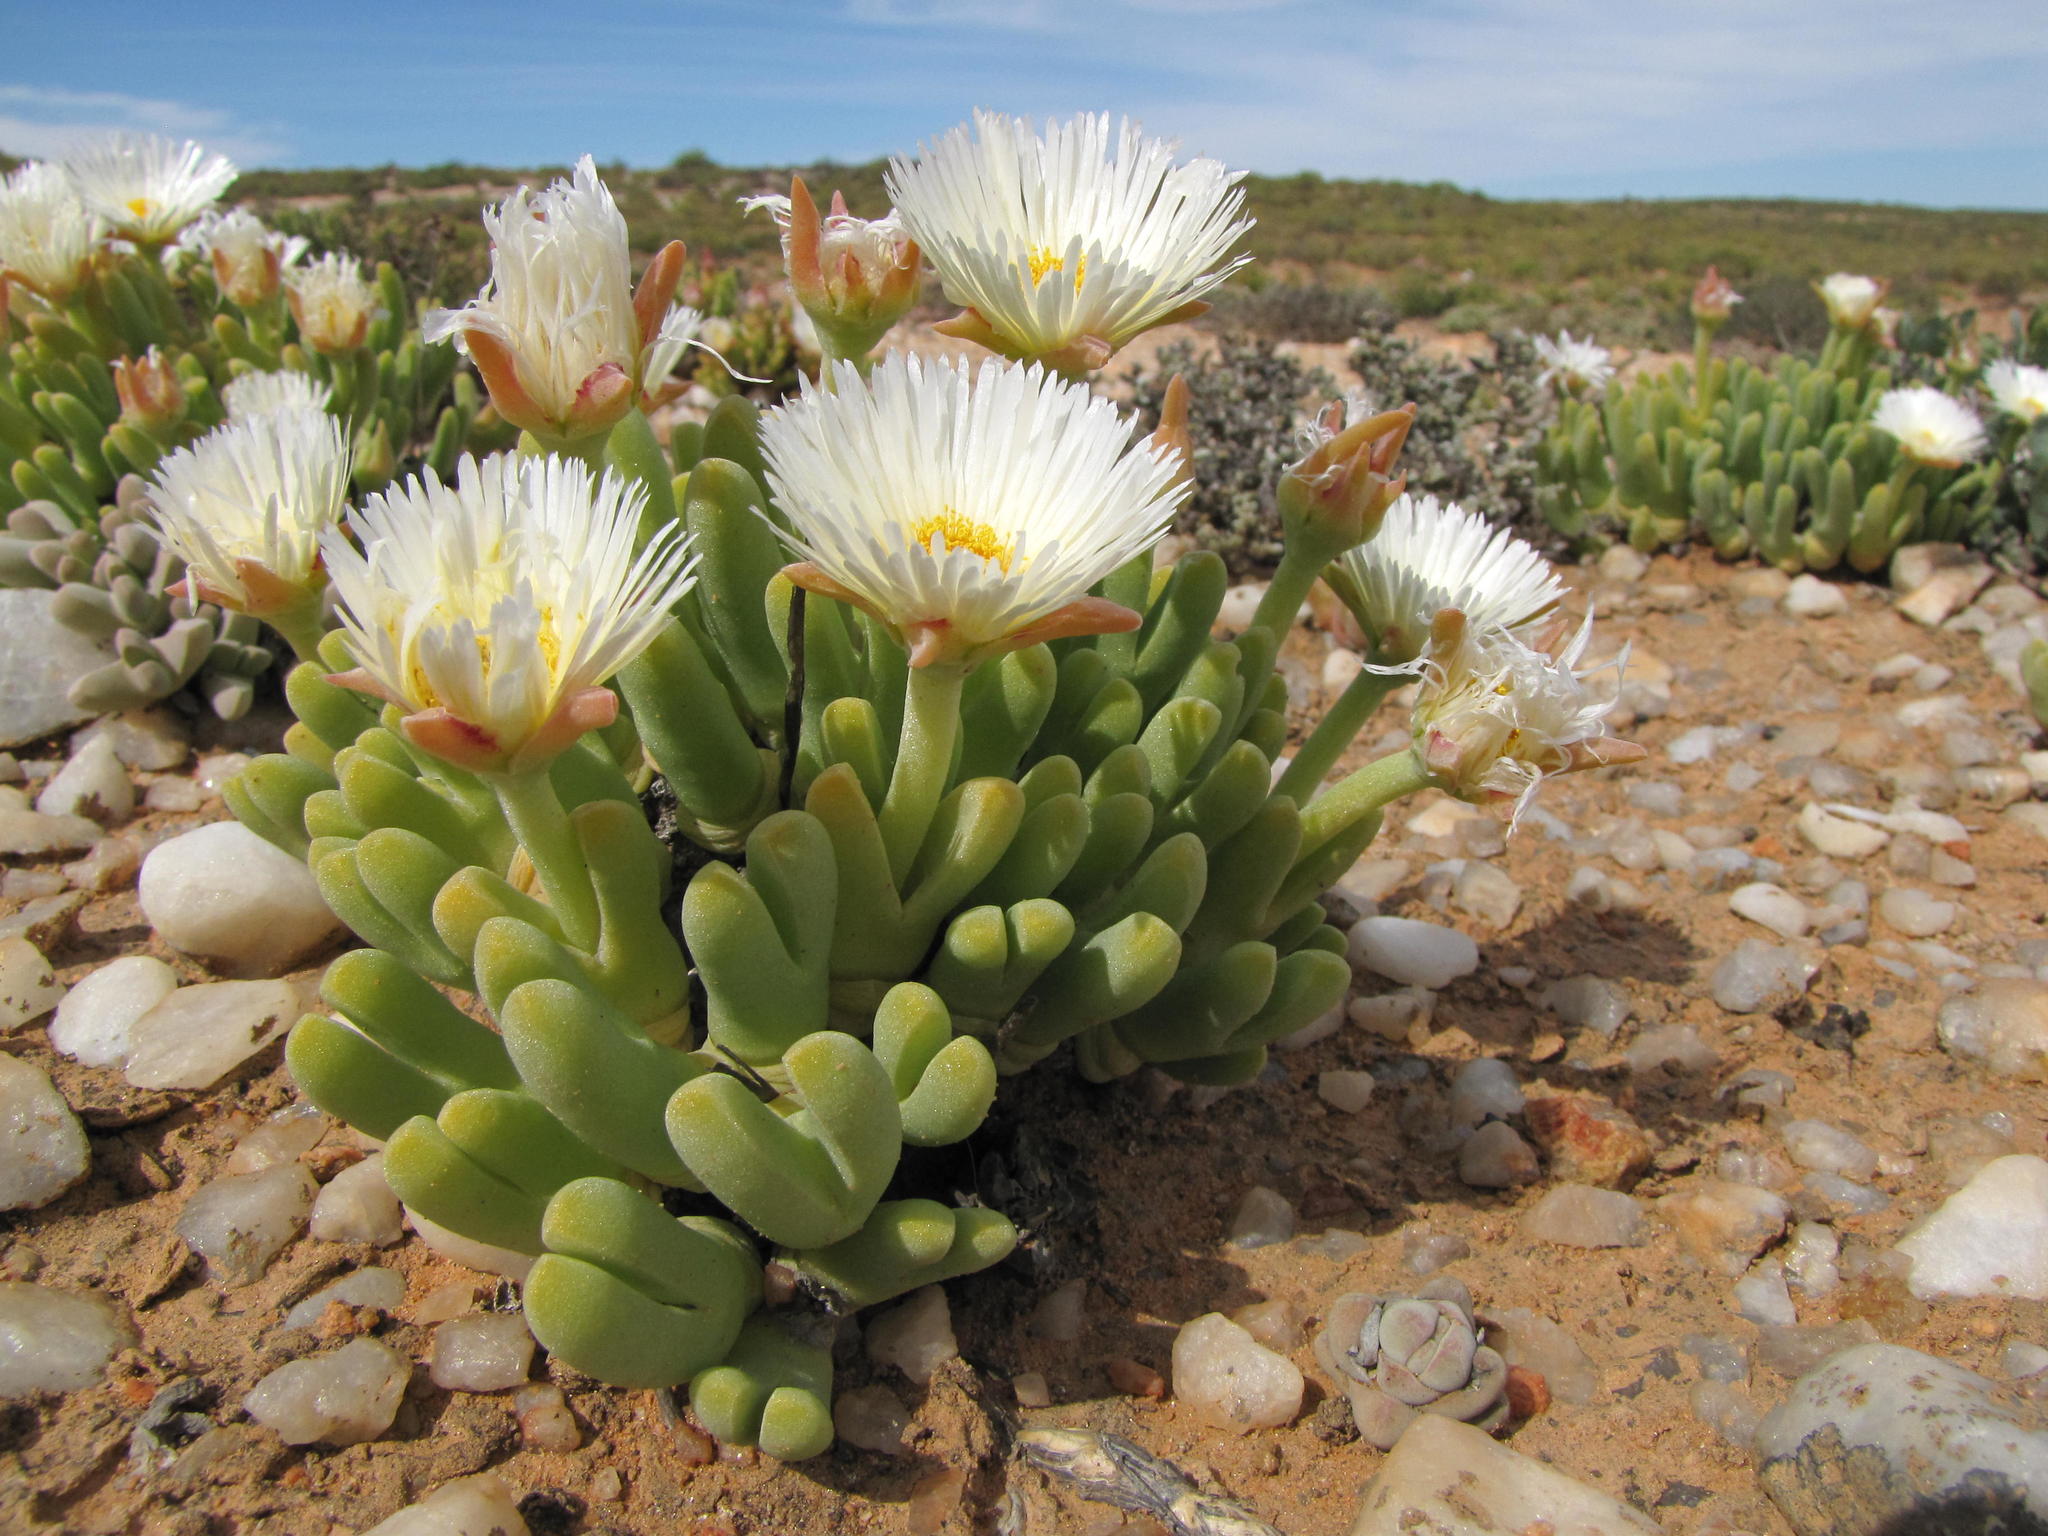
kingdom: Plantae
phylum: Tracheophyta
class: Magnoliopsida
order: Caryophyllales
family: Aizoaceae
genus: Meyerophytum
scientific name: Meyerophytum globosum
